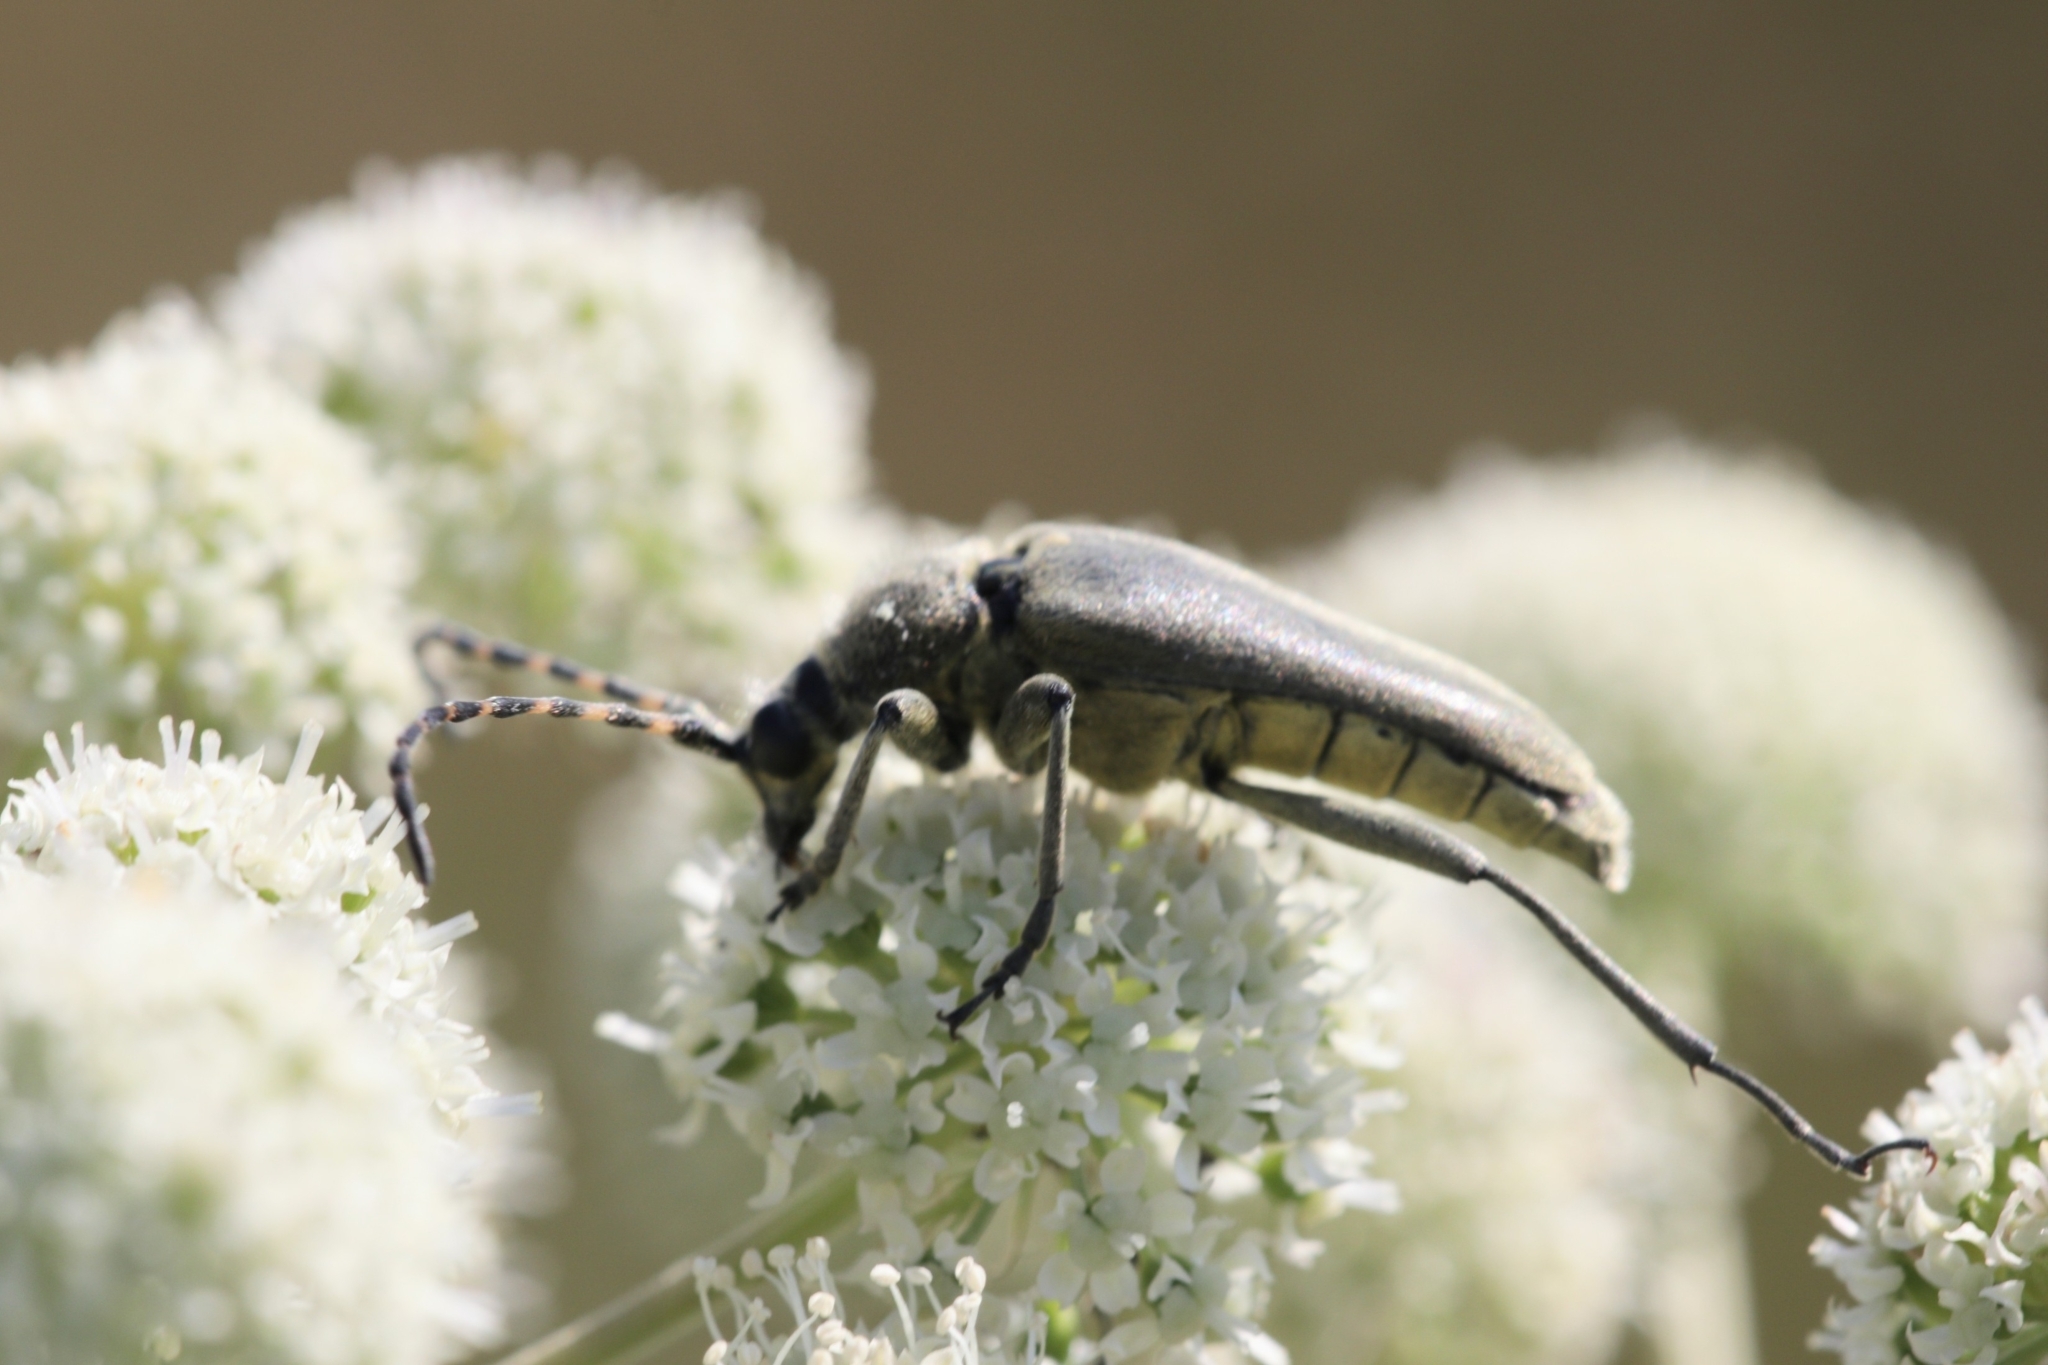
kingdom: Animalia
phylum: Arthropoda
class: Insecta
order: Coleoptera
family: Cerambycidae
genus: Lepturobosca
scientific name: Lepturobosca virens
